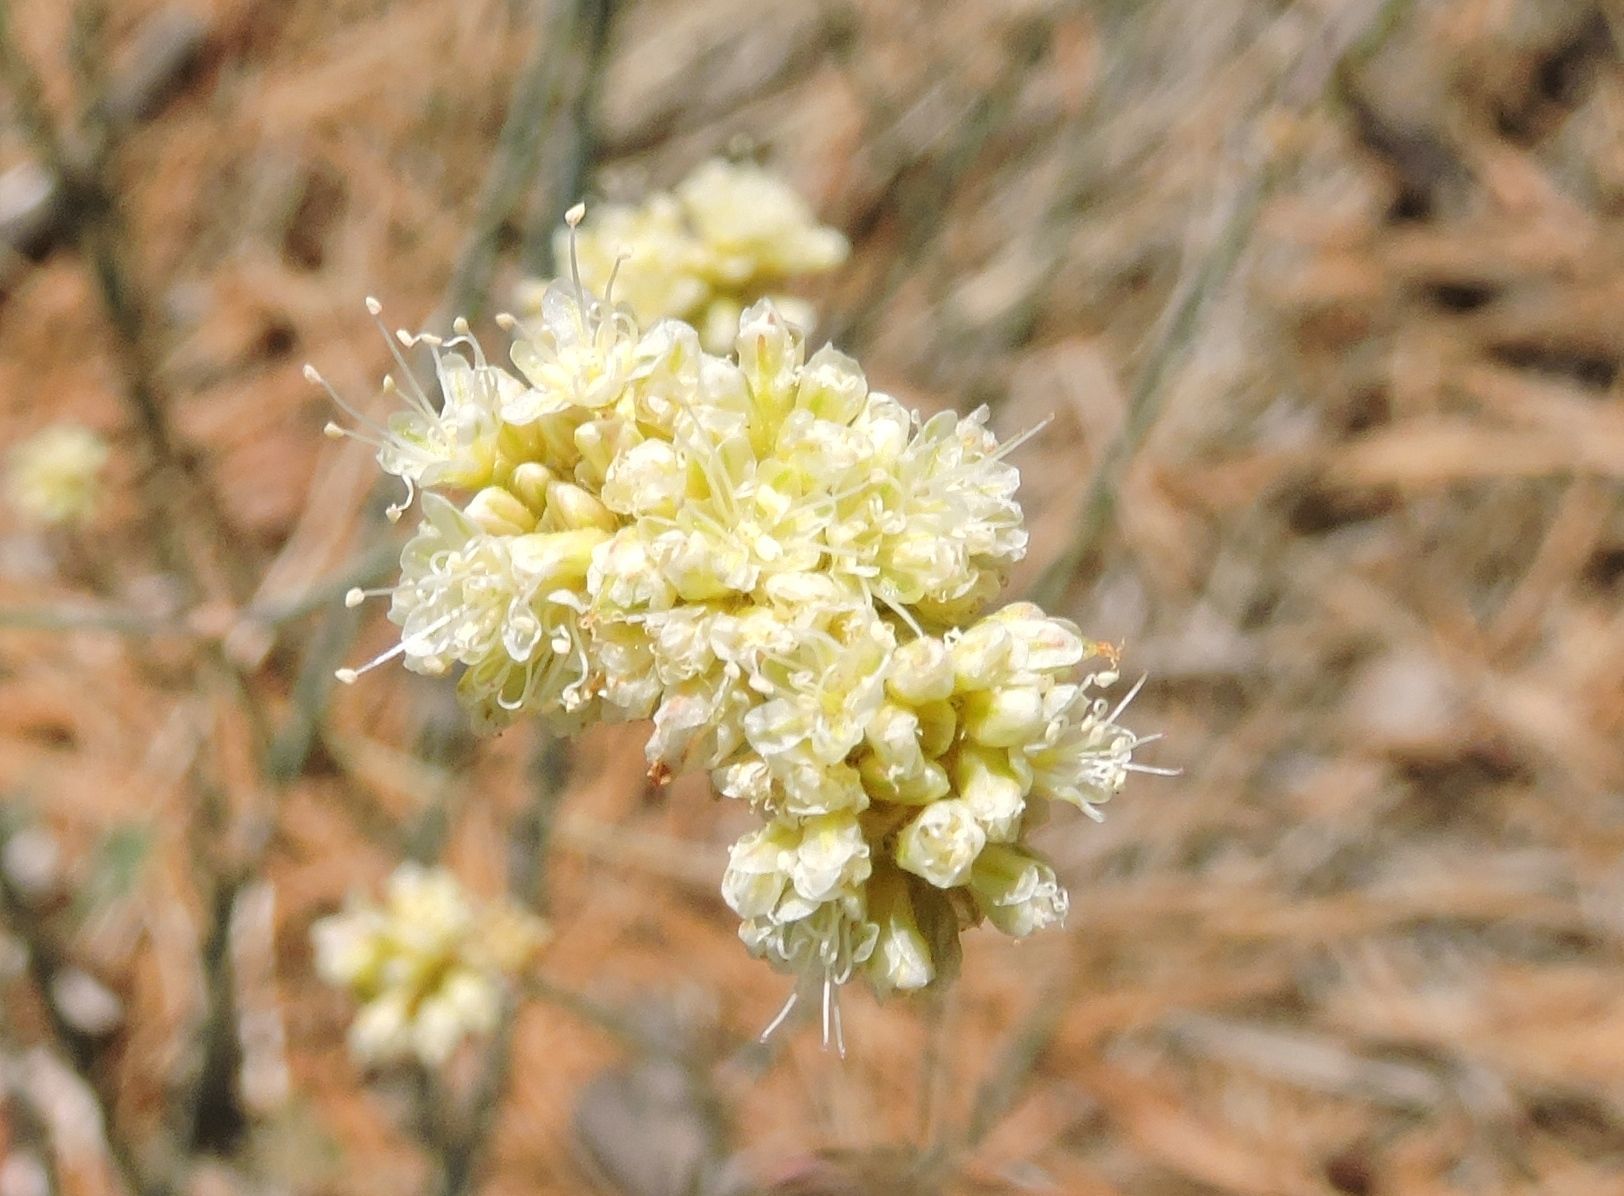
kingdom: Plantae
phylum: Tracheophyta
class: Magnoliopsida
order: Caryophyllales
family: Polygonaceae
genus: Eriogonum
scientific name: Eriogonum nudum
